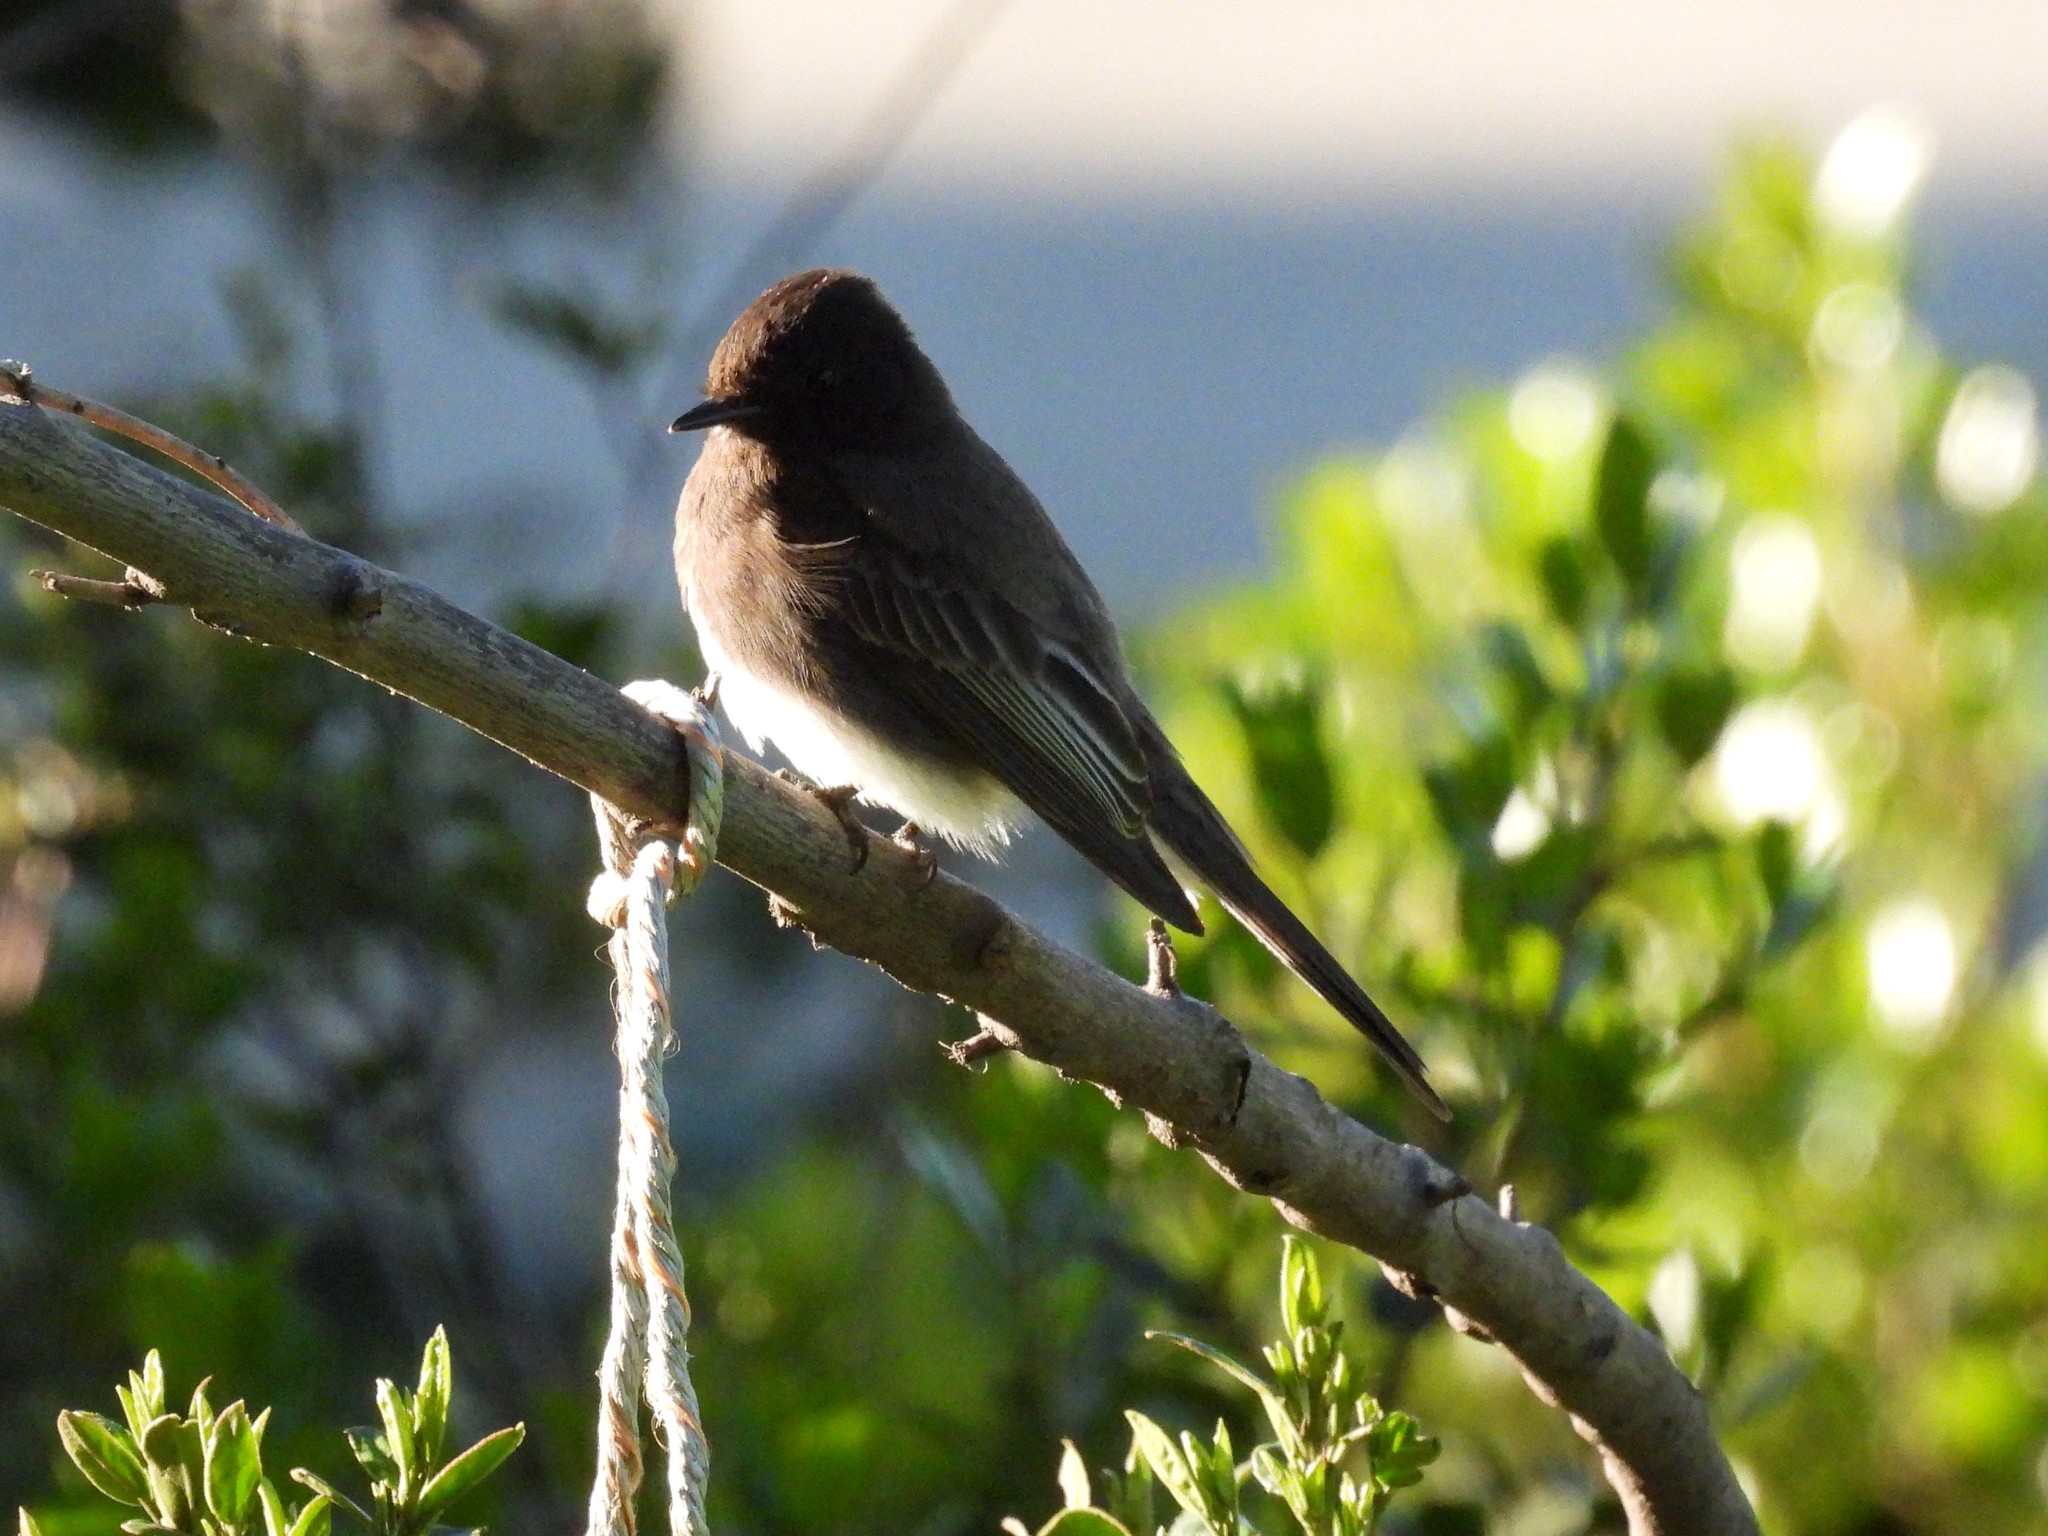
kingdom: Animalia
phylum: Chordata
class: Aves
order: Passeriformes
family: Tyrannidae
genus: Sayornis
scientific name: Sayornis nigricans
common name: Black phoebe
